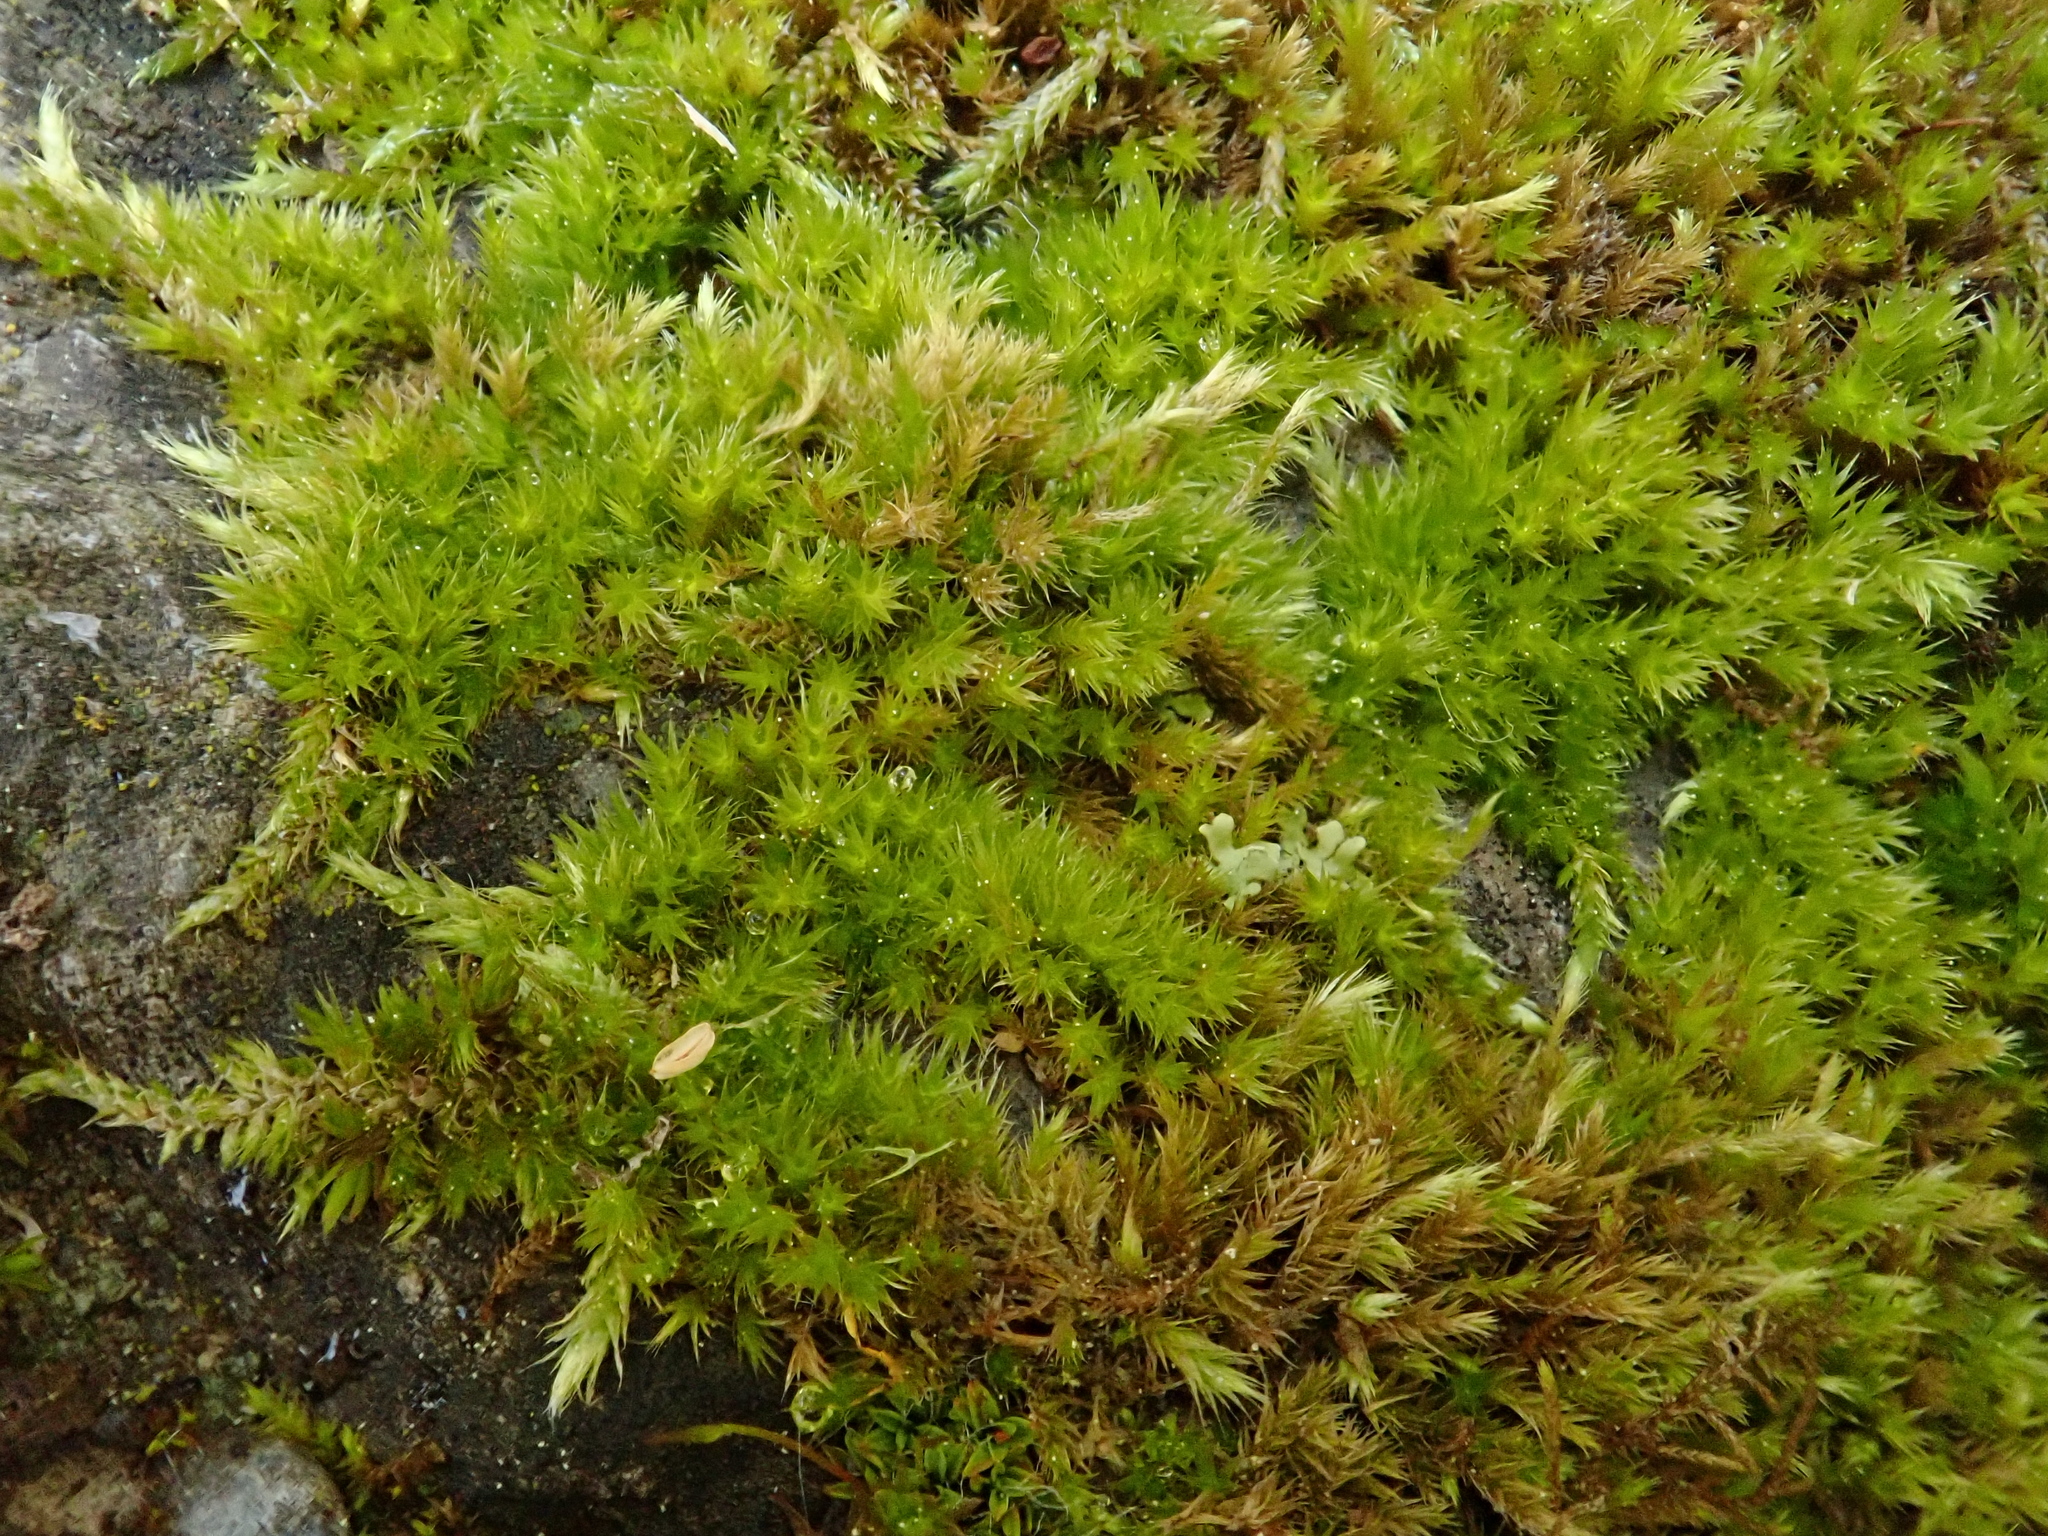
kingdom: Plantae
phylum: Bryophyta
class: Bryopsida
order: Hypnales
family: Brachytheciaceae
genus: Homalothecium
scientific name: Homalothecium sericeum
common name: Silky wall feather-moss
